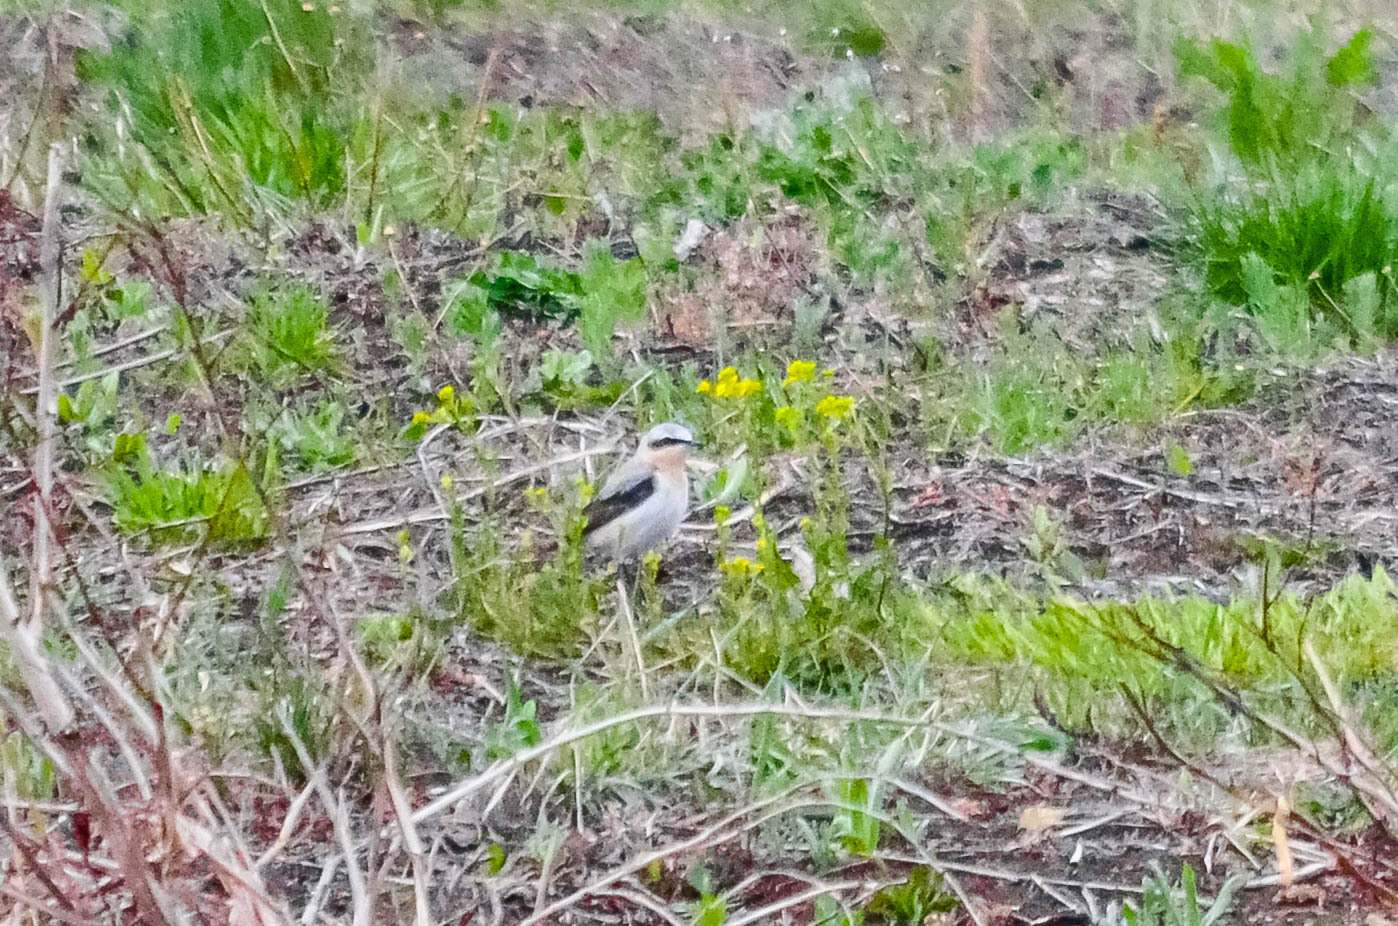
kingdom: Animalia
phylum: Chordata
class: Aves
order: Passeriformes
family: Muscicapidae
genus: Oenanthe
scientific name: Oenanthe oenanthe
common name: Northern wheatear
